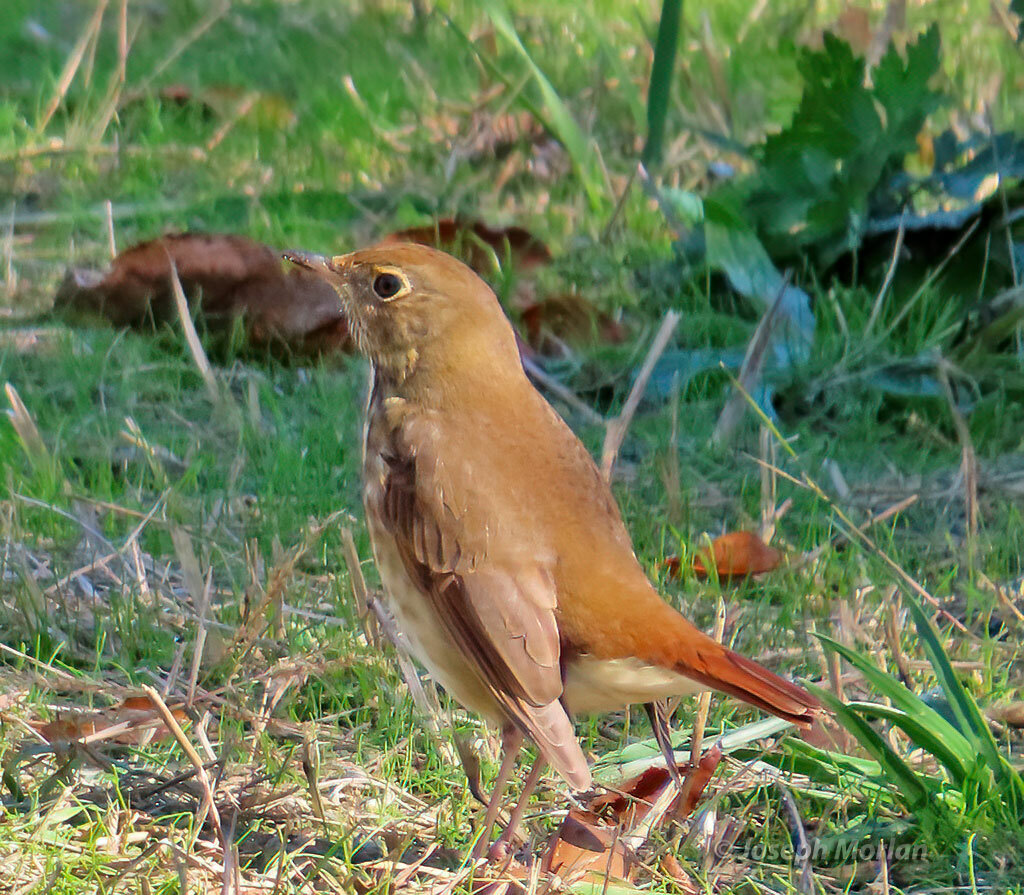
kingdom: Animalia
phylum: Chordata
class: Aves
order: Passeriformes
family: Turdidae
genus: Catharus
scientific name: Catharus guttatus
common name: Hermit thrush
